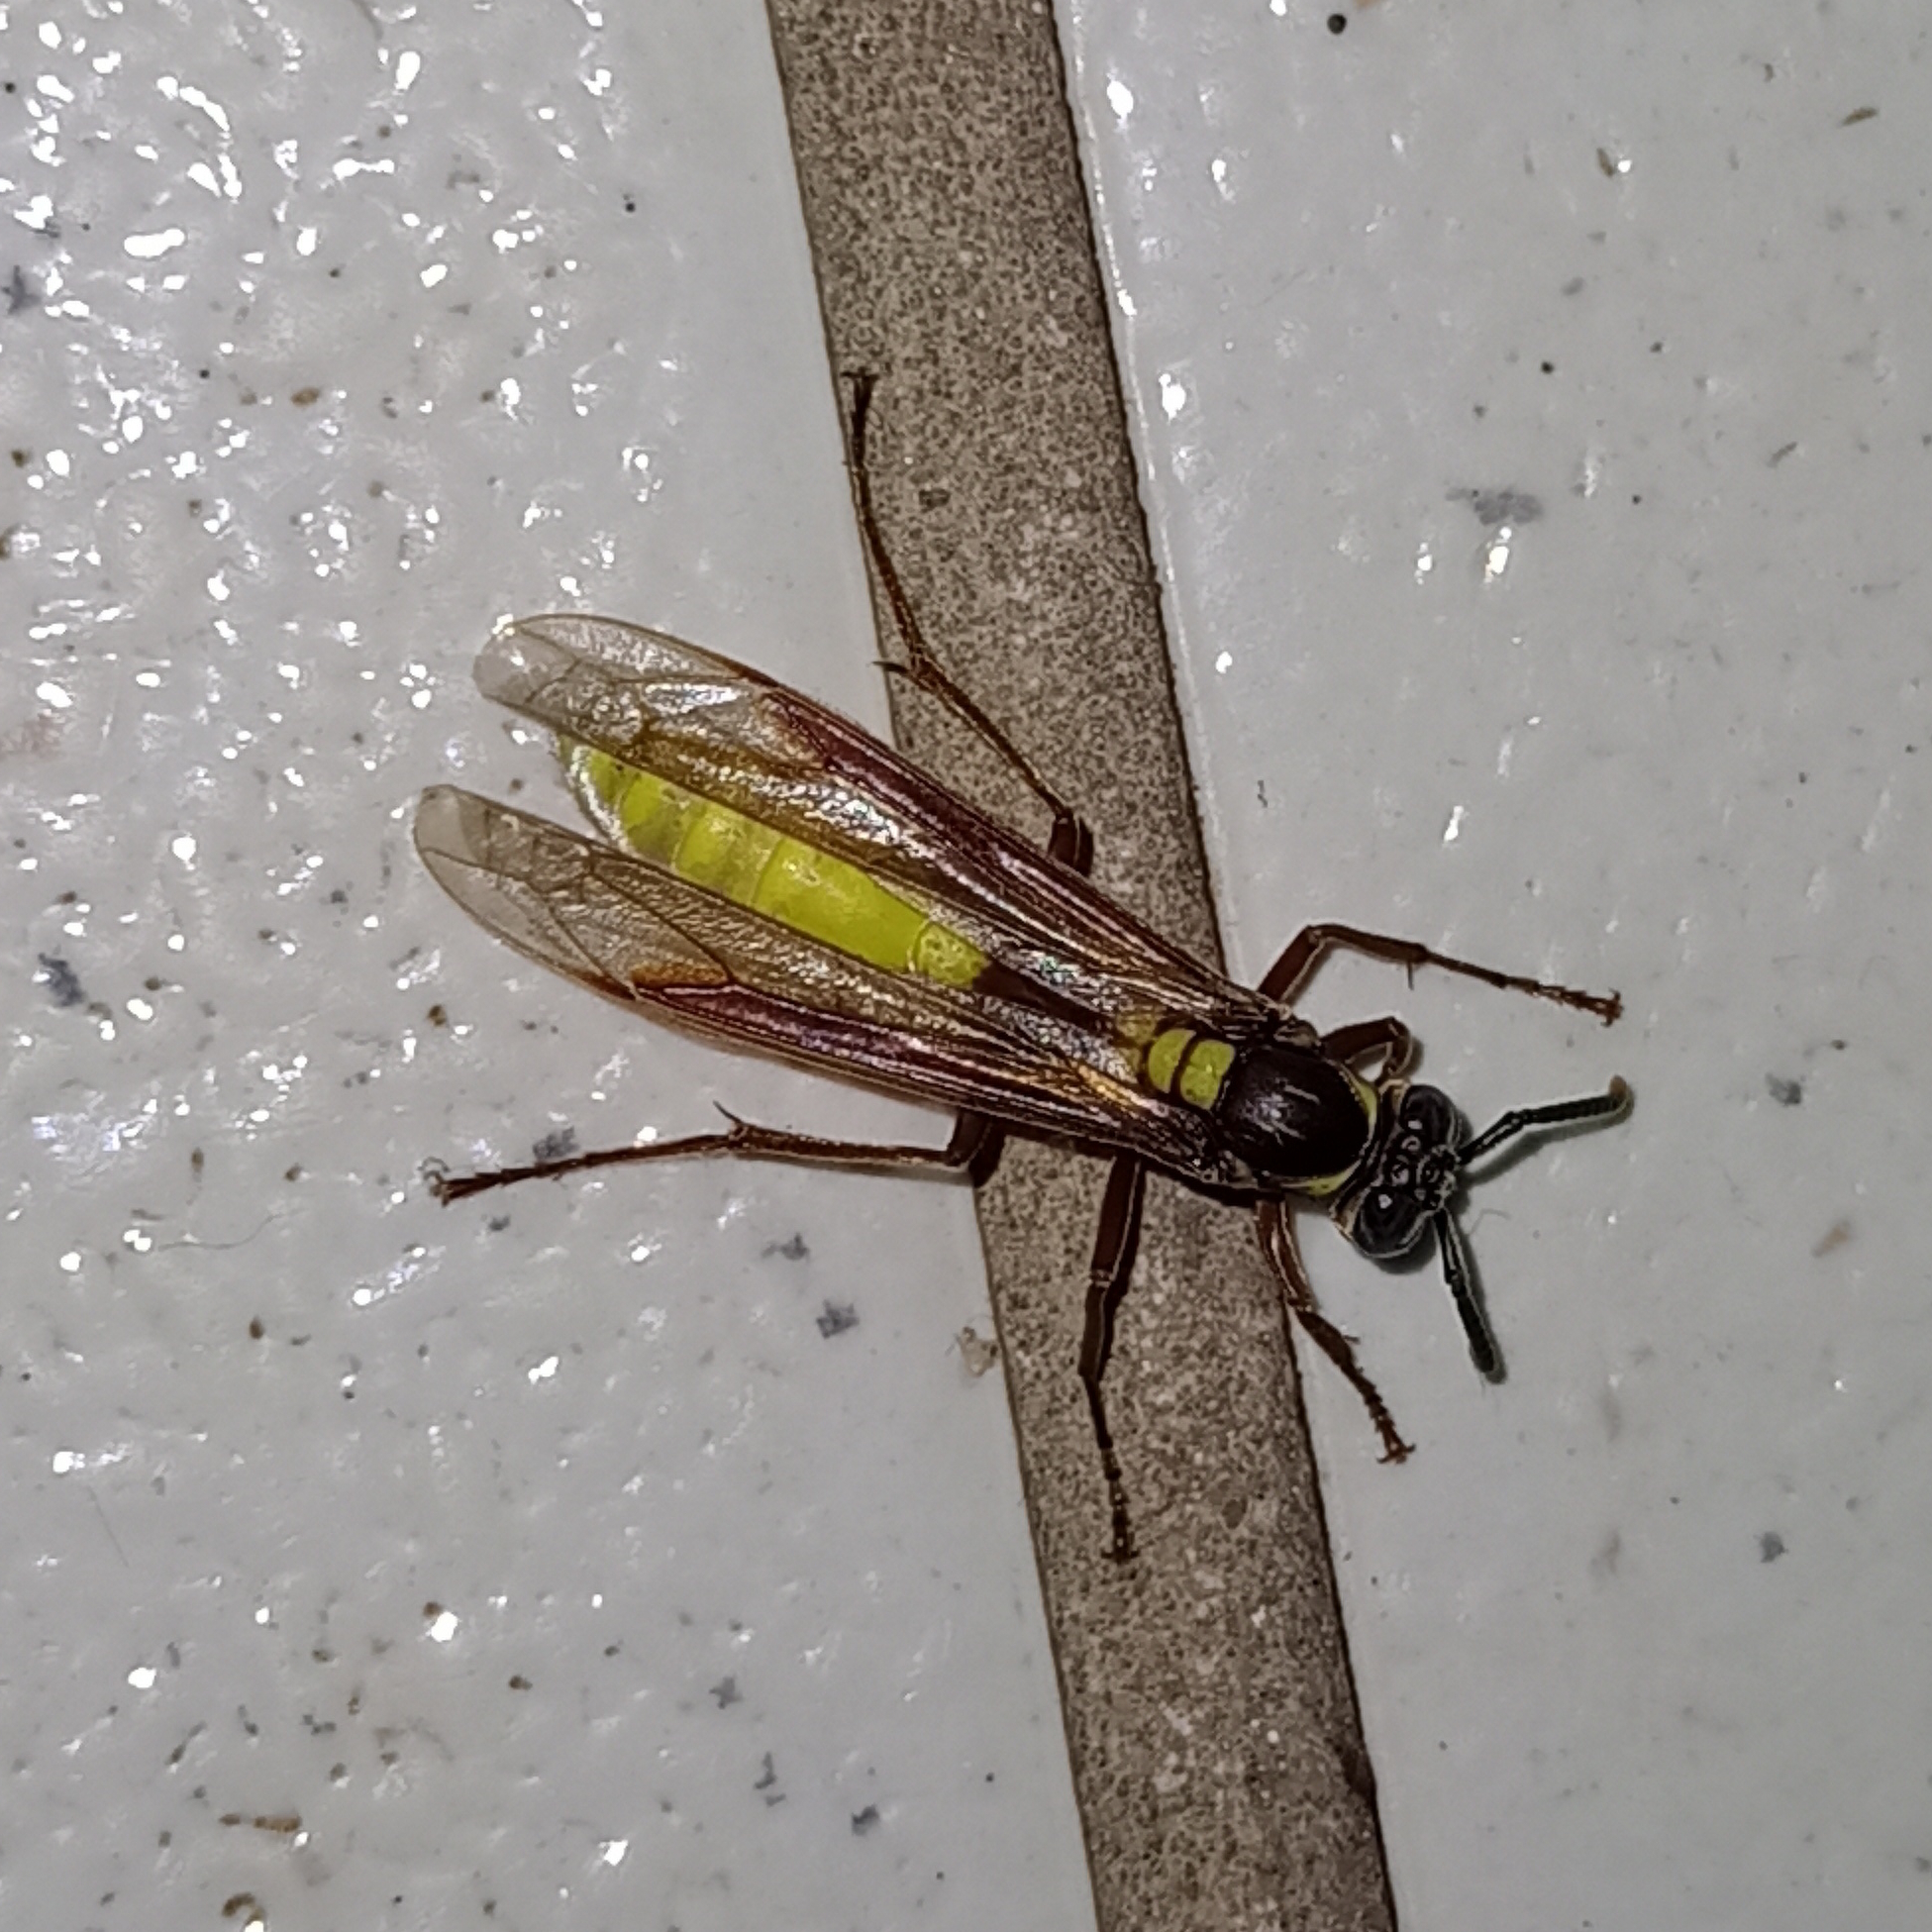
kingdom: Animalia
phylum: Arthropoda
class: Insecta
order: Hymenoptera
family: Vespidae
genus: Apoica
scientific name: Apoica pallens
